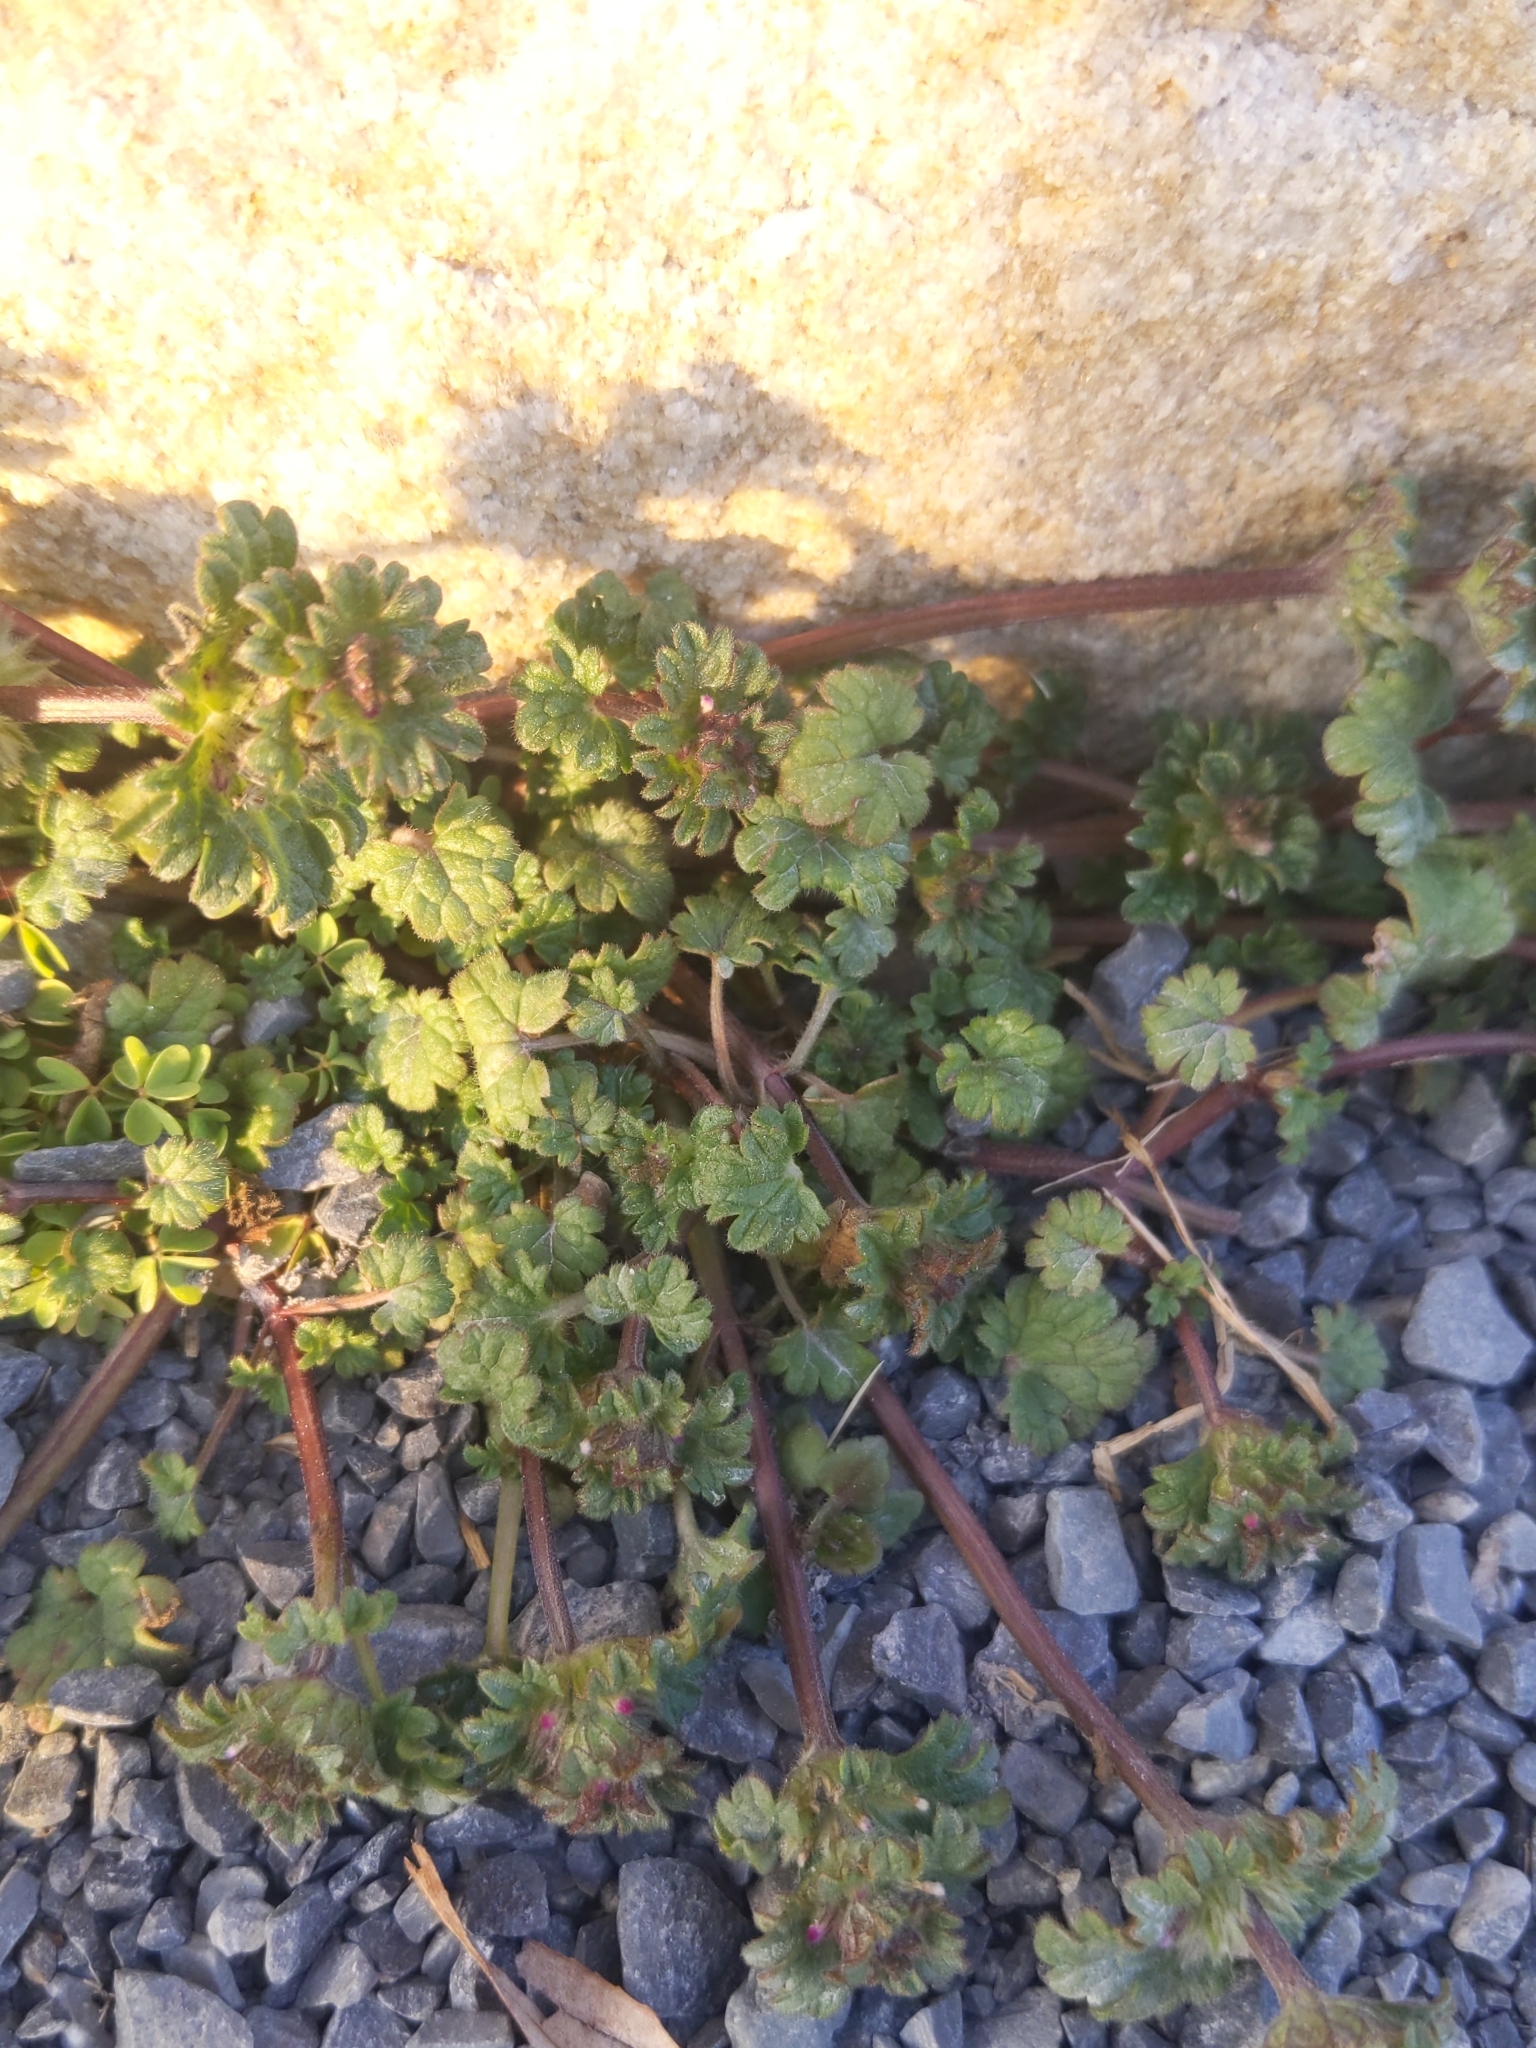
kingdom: Plantae
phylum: Tracheophyta
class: Magnoliopsida
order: Lamiales
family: Lamiaceae
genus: Lamium
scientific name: Lamium amplexicaule
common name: Henbit dead-nettle
